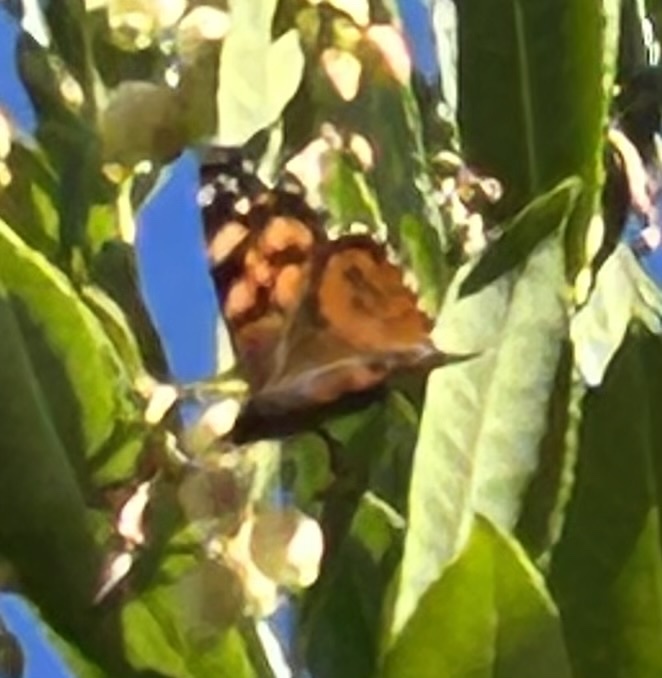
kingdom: Animalia
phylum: Arthropoda
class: Insecta
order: Lepidoptera
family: Nymphalidae
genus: Vanessa
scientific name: Vanessa annabella
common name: West coast lady
